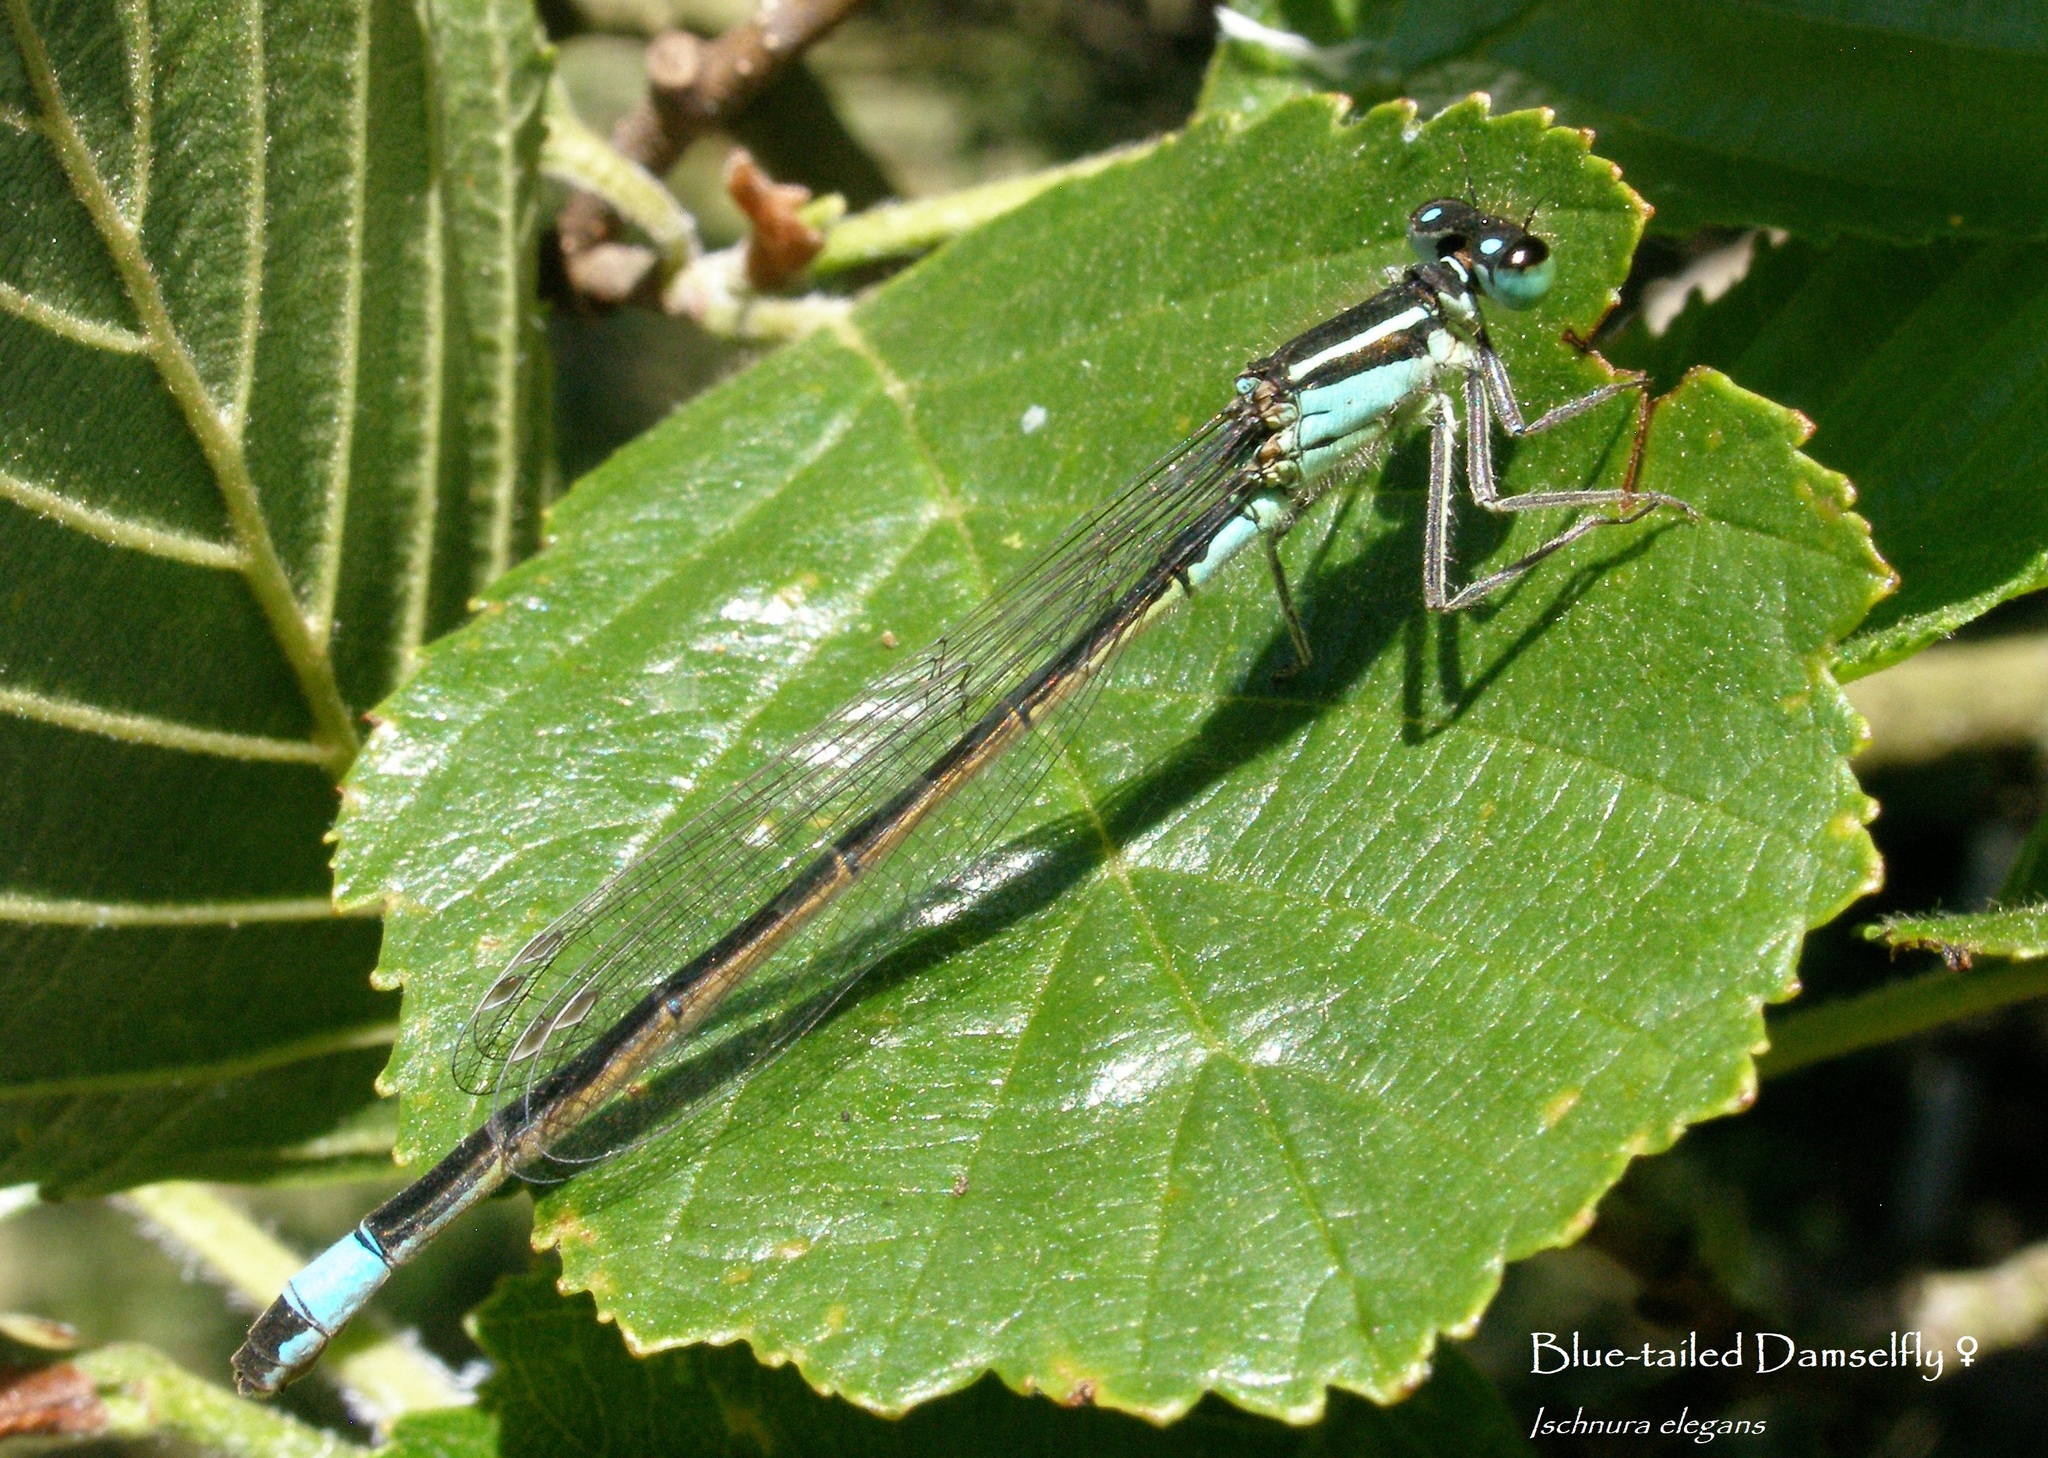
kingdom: Animalia
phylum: Arthropoda
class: Insecta
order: Odonata
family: Coenagrionidae
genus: Ischnura
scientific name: Ischnura elegans
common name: Blue-tailed damselfly
